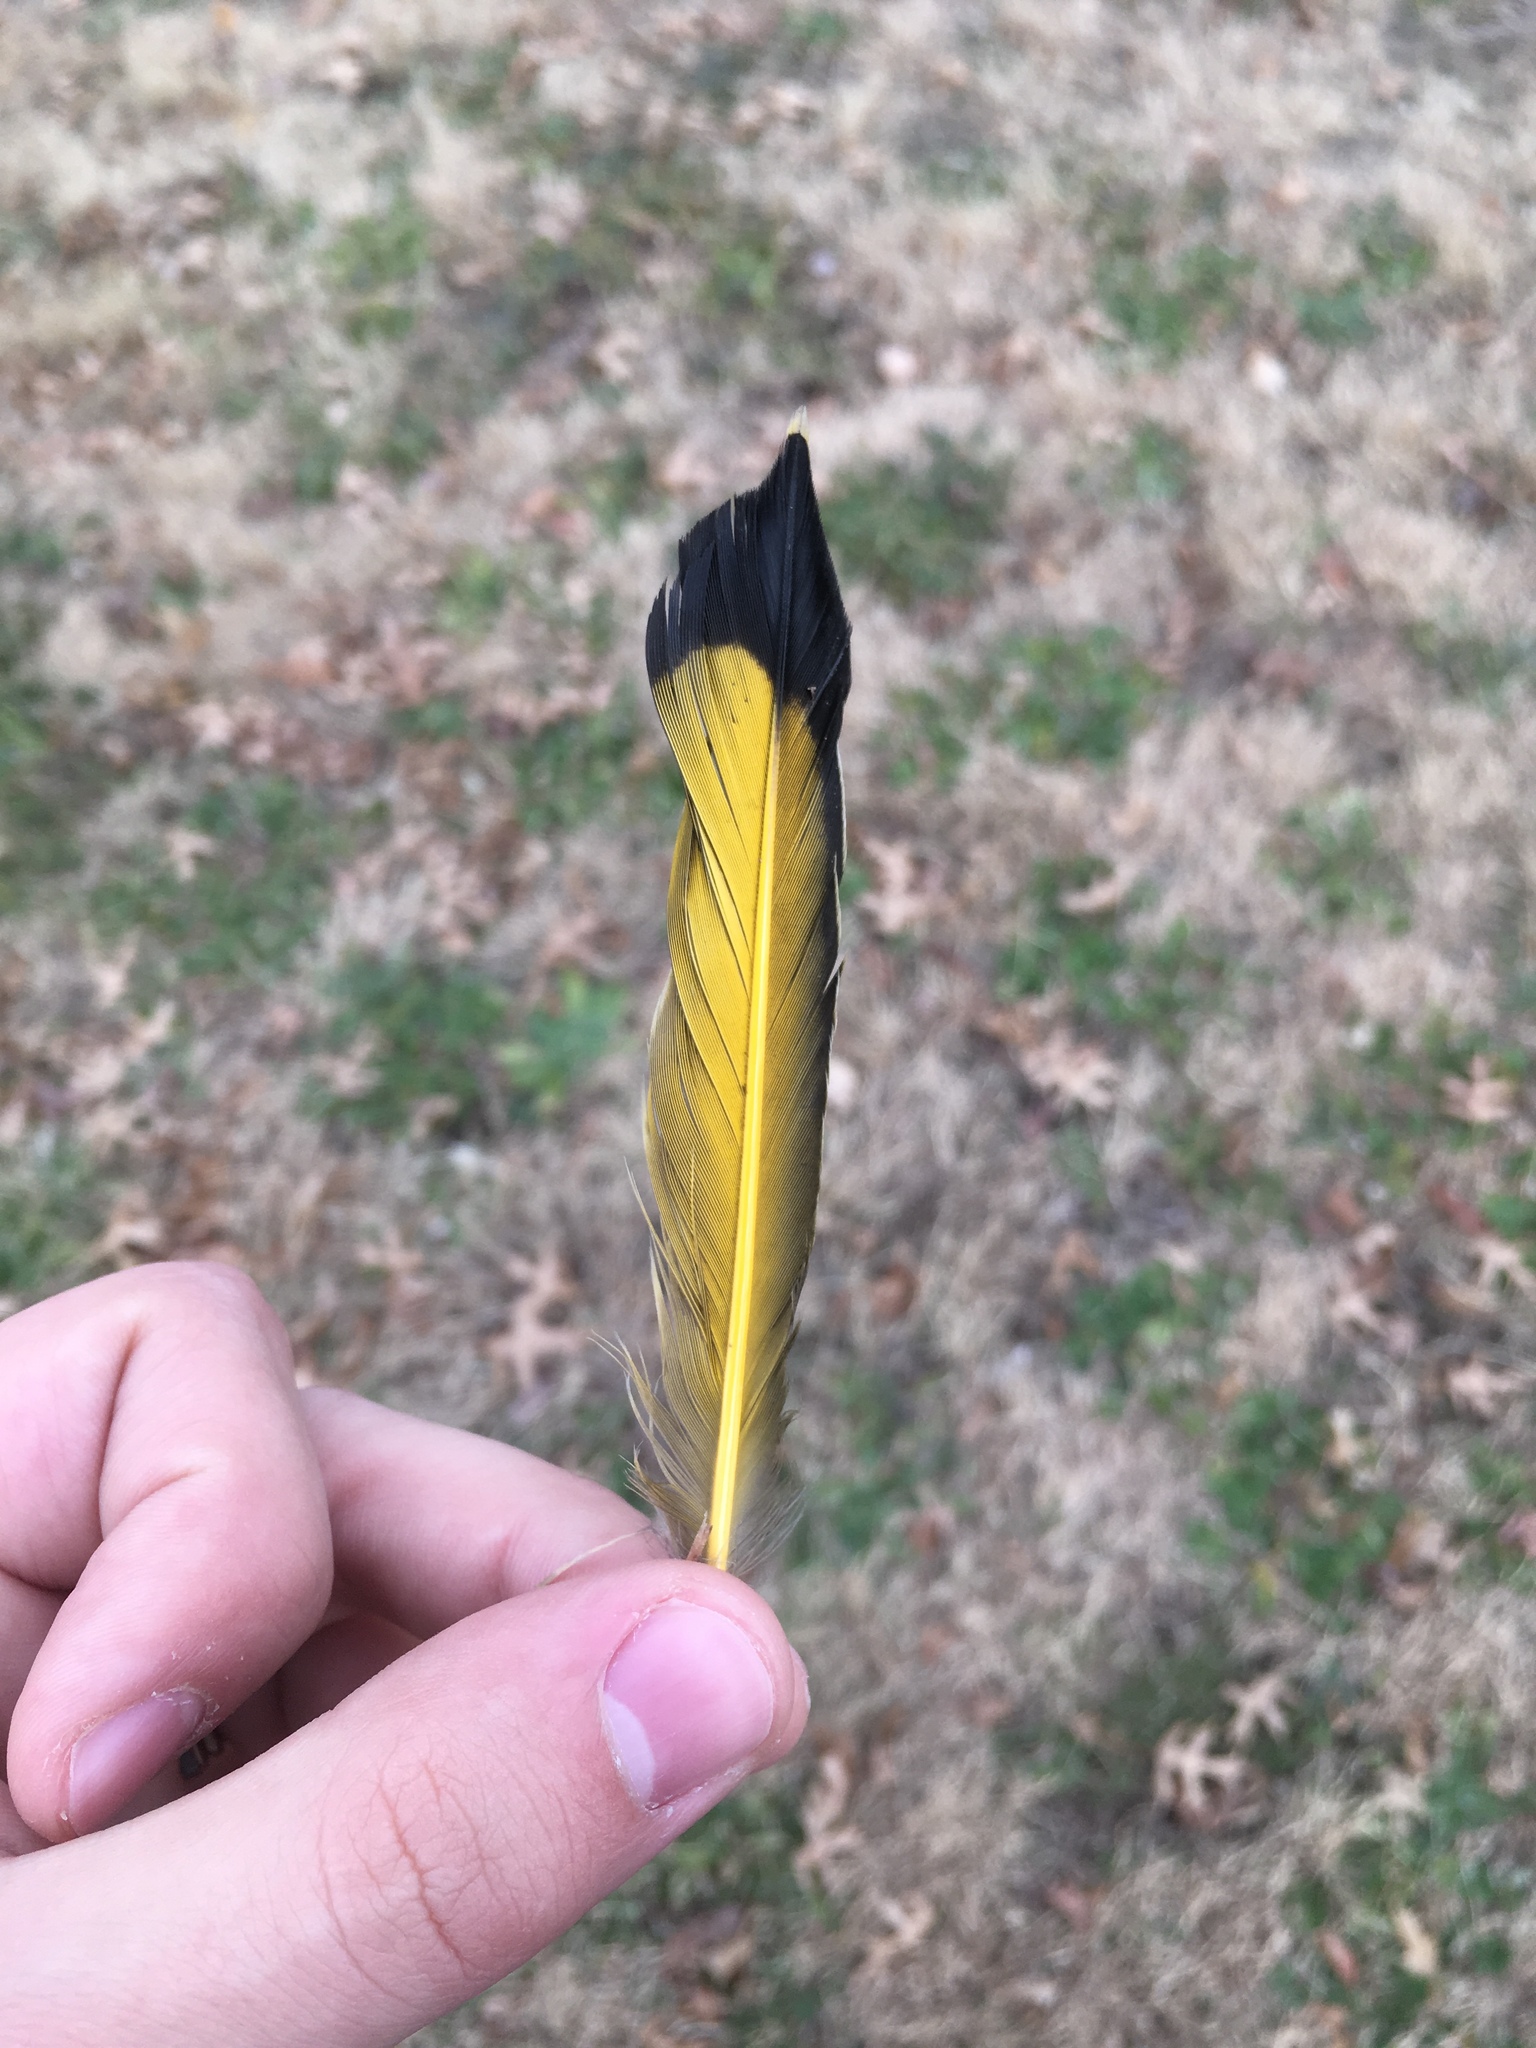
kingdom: Animalia
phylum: Chordata
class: Aves
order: Piciformes
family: Picidae
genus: Colaptes
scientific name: Colaptes auratus
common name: Northern flicker
